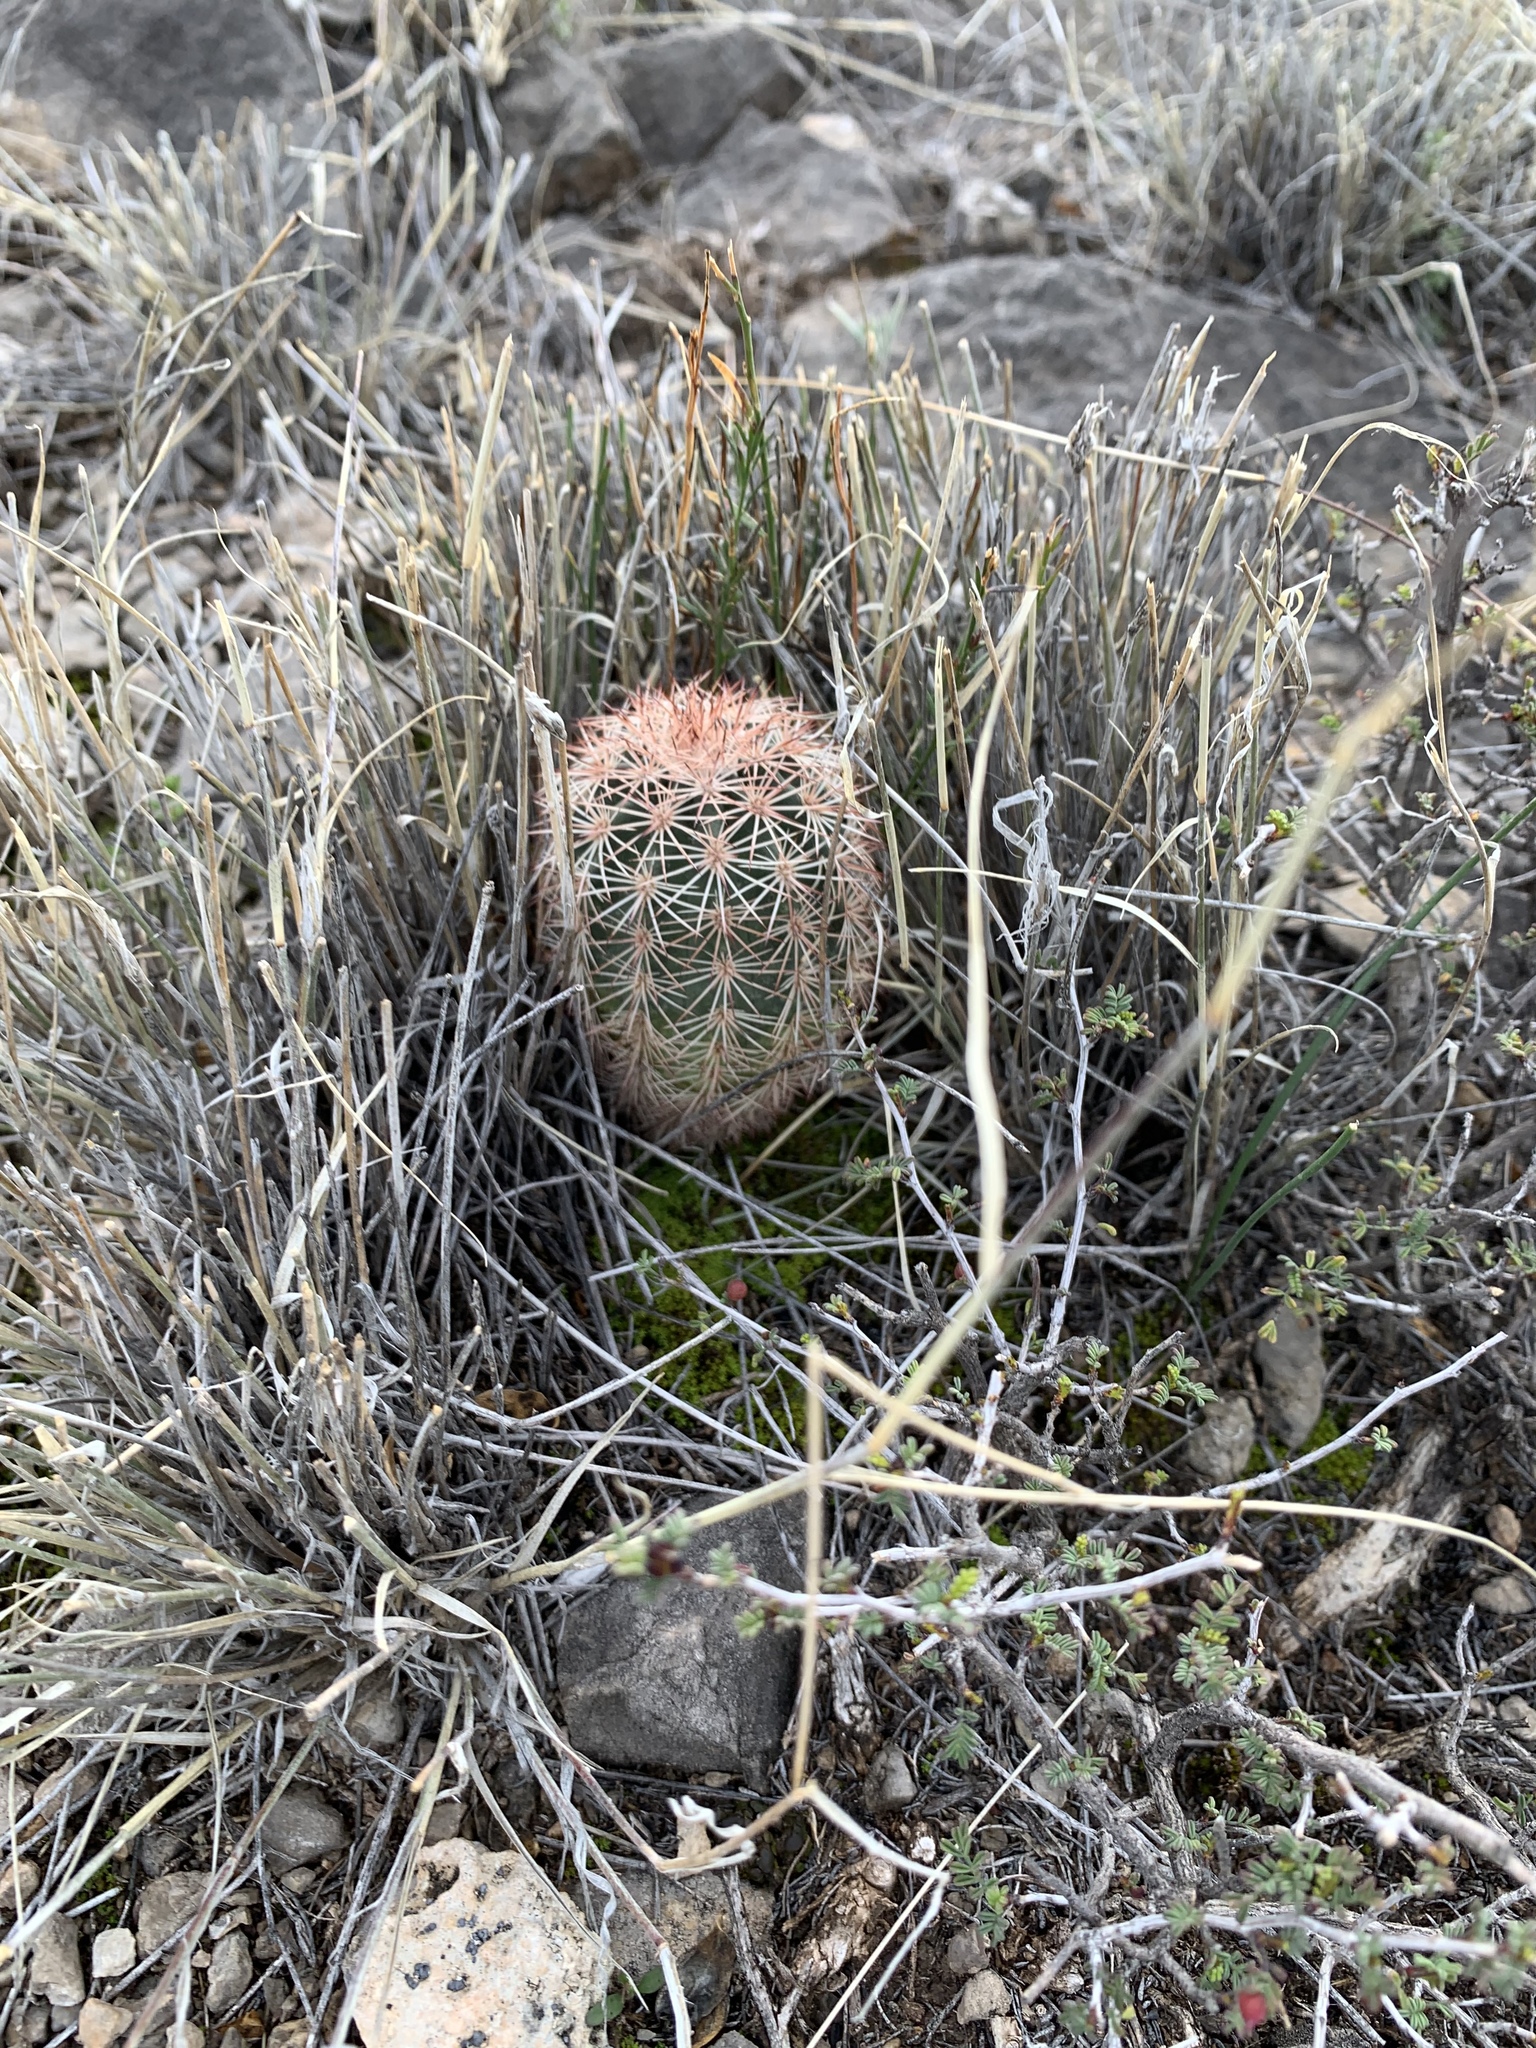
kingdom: Plantae
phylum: Tracheophyta
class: Magnoliopsida
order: Caryophyllales
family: Cactaceae
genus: Echinocereus
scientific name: Echinocereus dasyacanthus
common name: Spiny hedgehog cactus
